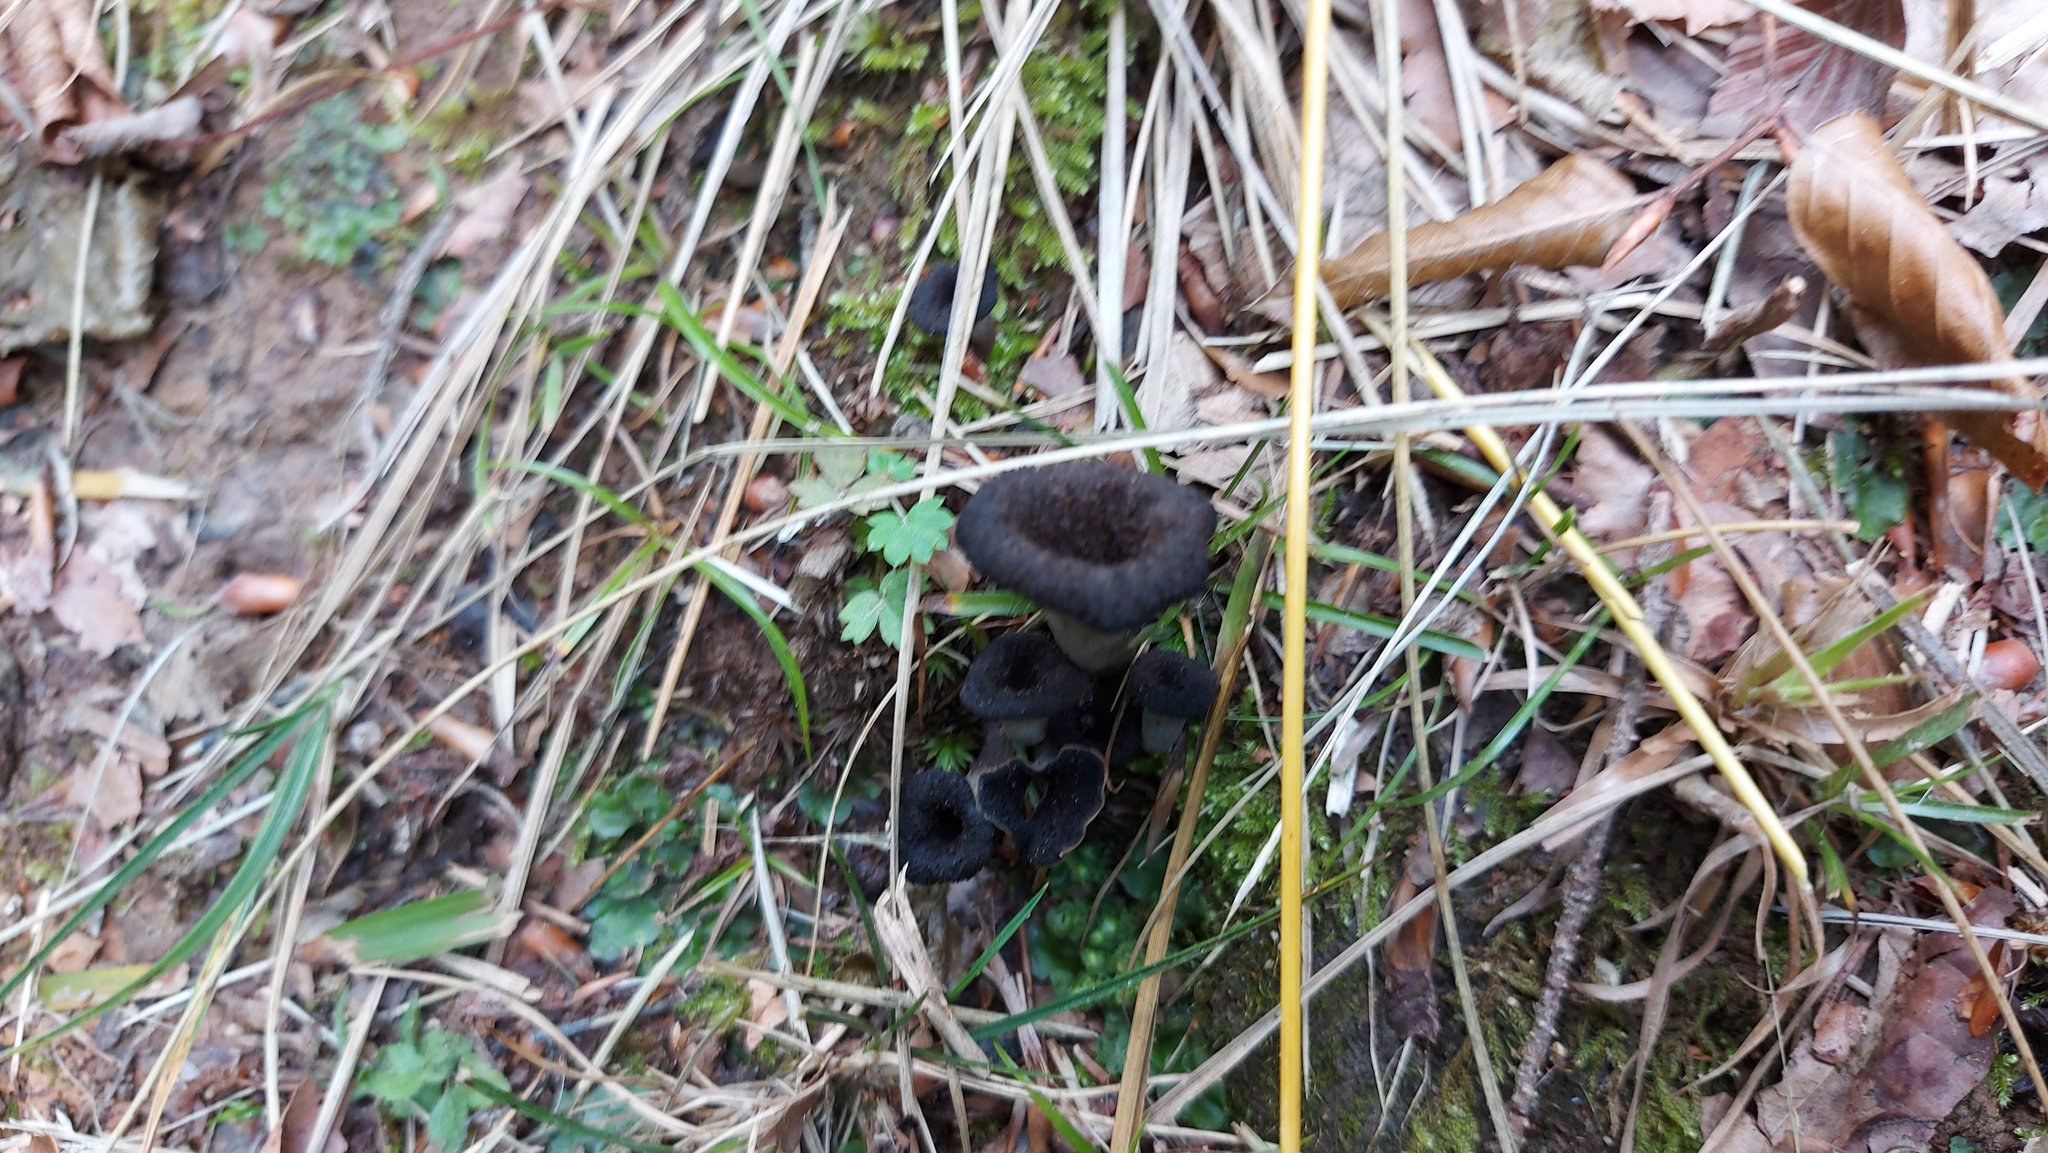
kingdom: Fungi
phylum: Basidiomycota
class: Agaricomycetes
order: Cantharellales
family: Hydnaceae
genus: Craterellus
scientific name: Craterellus cornucopioides
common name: Horn of plenty
